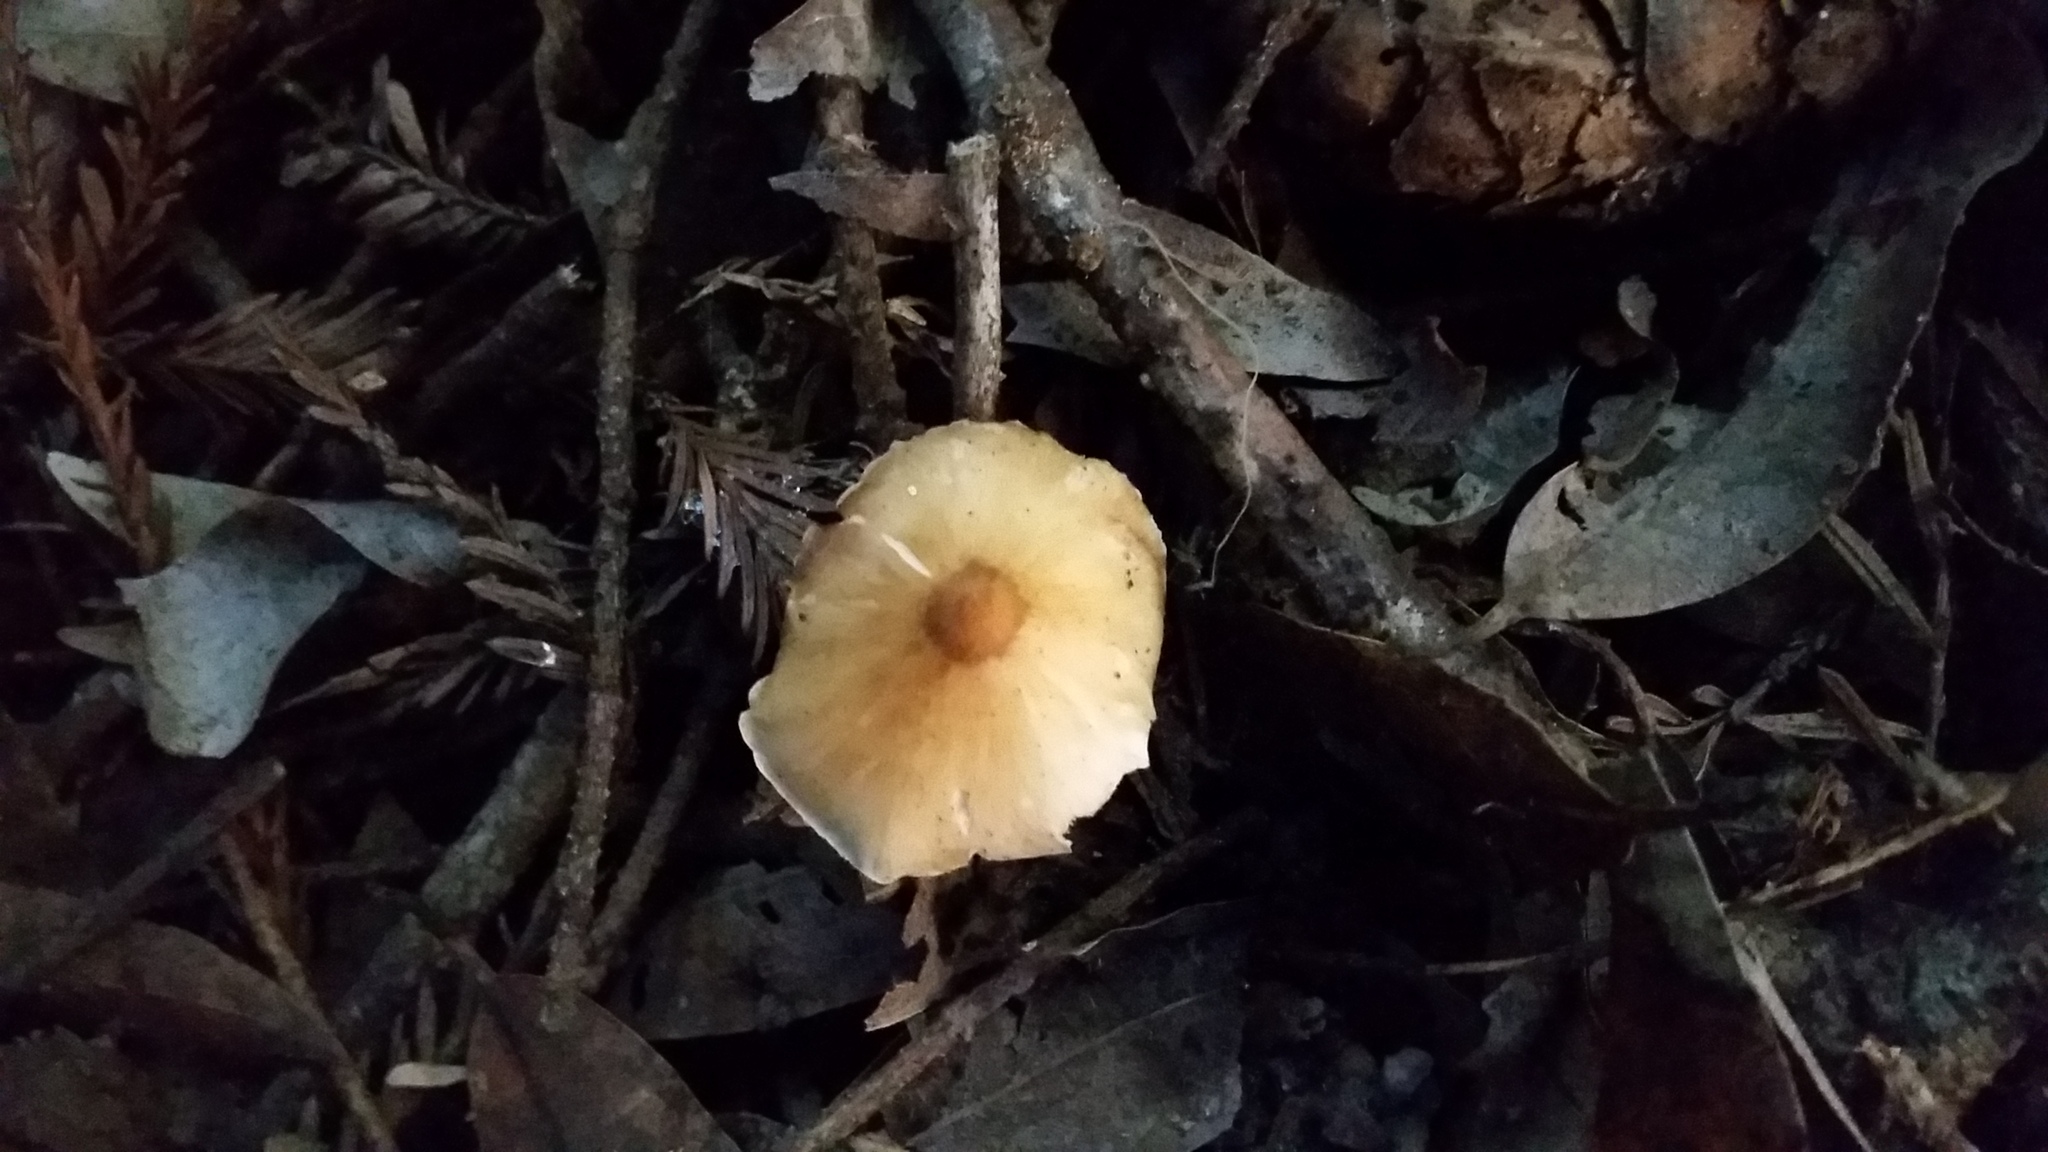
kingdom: Fungi
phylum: Basidiomycota
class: Agaricomycetes
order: Agaricales
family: Tricholomataceae
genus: Caulorhiza
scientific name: Caulorhiza umbonata
